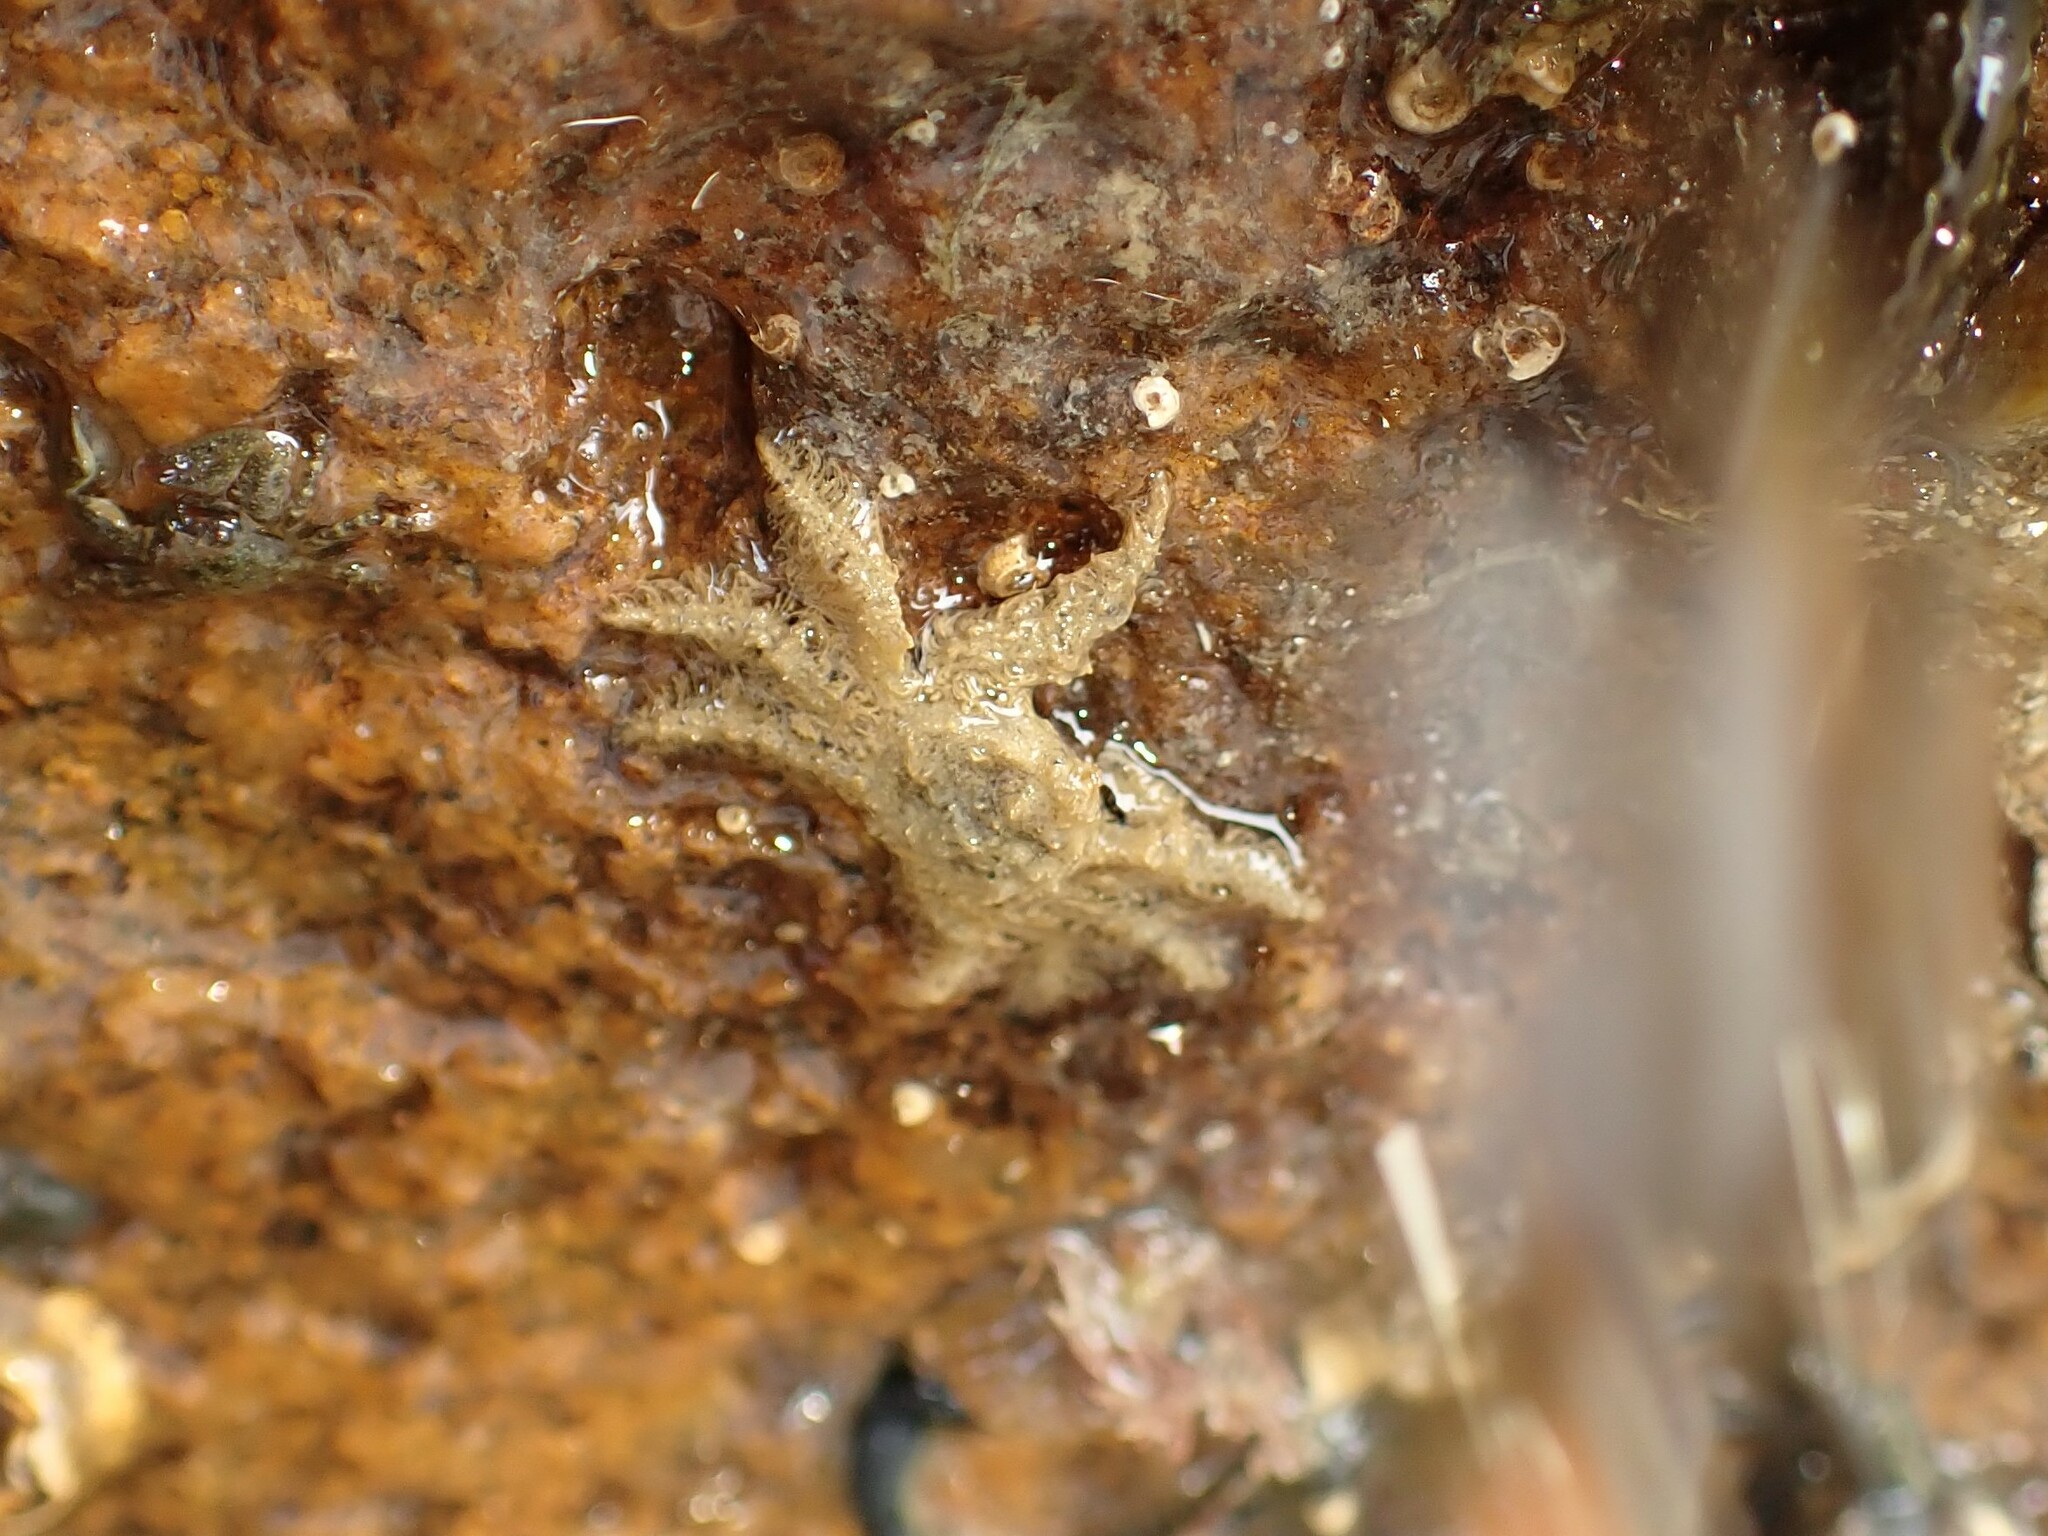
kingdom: Animalia
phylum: Arthropoda
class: Malacostraca
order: Decapoda
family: Hymenosomatidae
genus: Neohymenicus
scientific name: Neohymenicus pubescens
